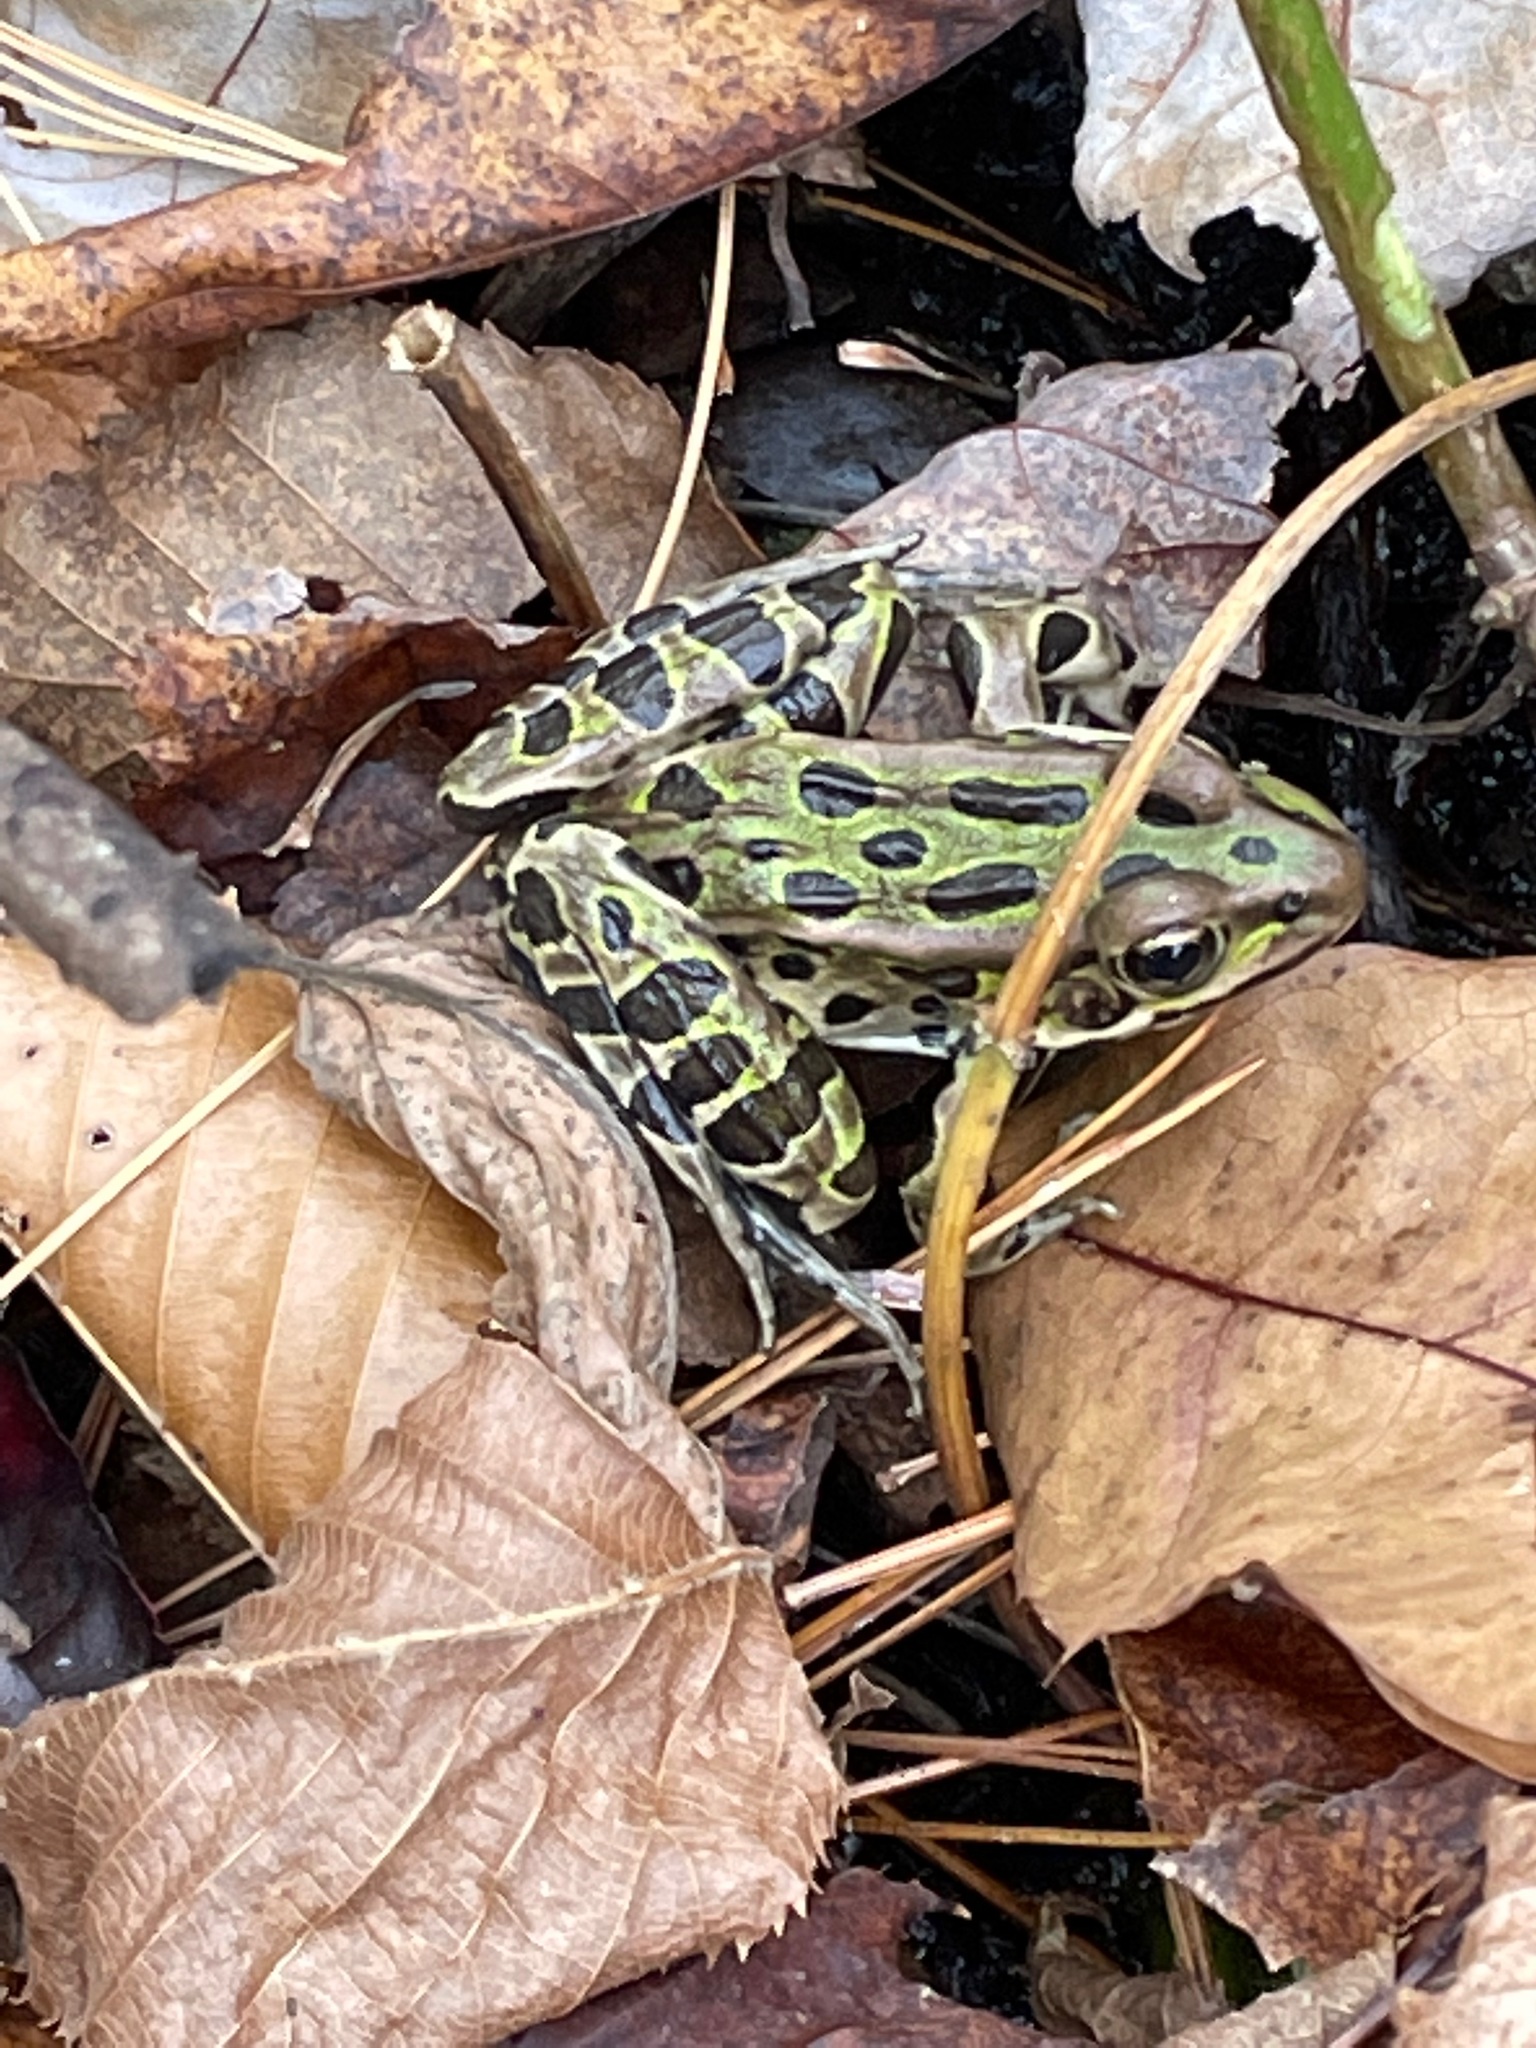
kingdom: Animalia
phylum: Chordata
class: Amphibia
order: Anura
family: Ranidae
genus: Lithobates
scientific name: Lithobates pipiens
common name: Northern leopard frog
